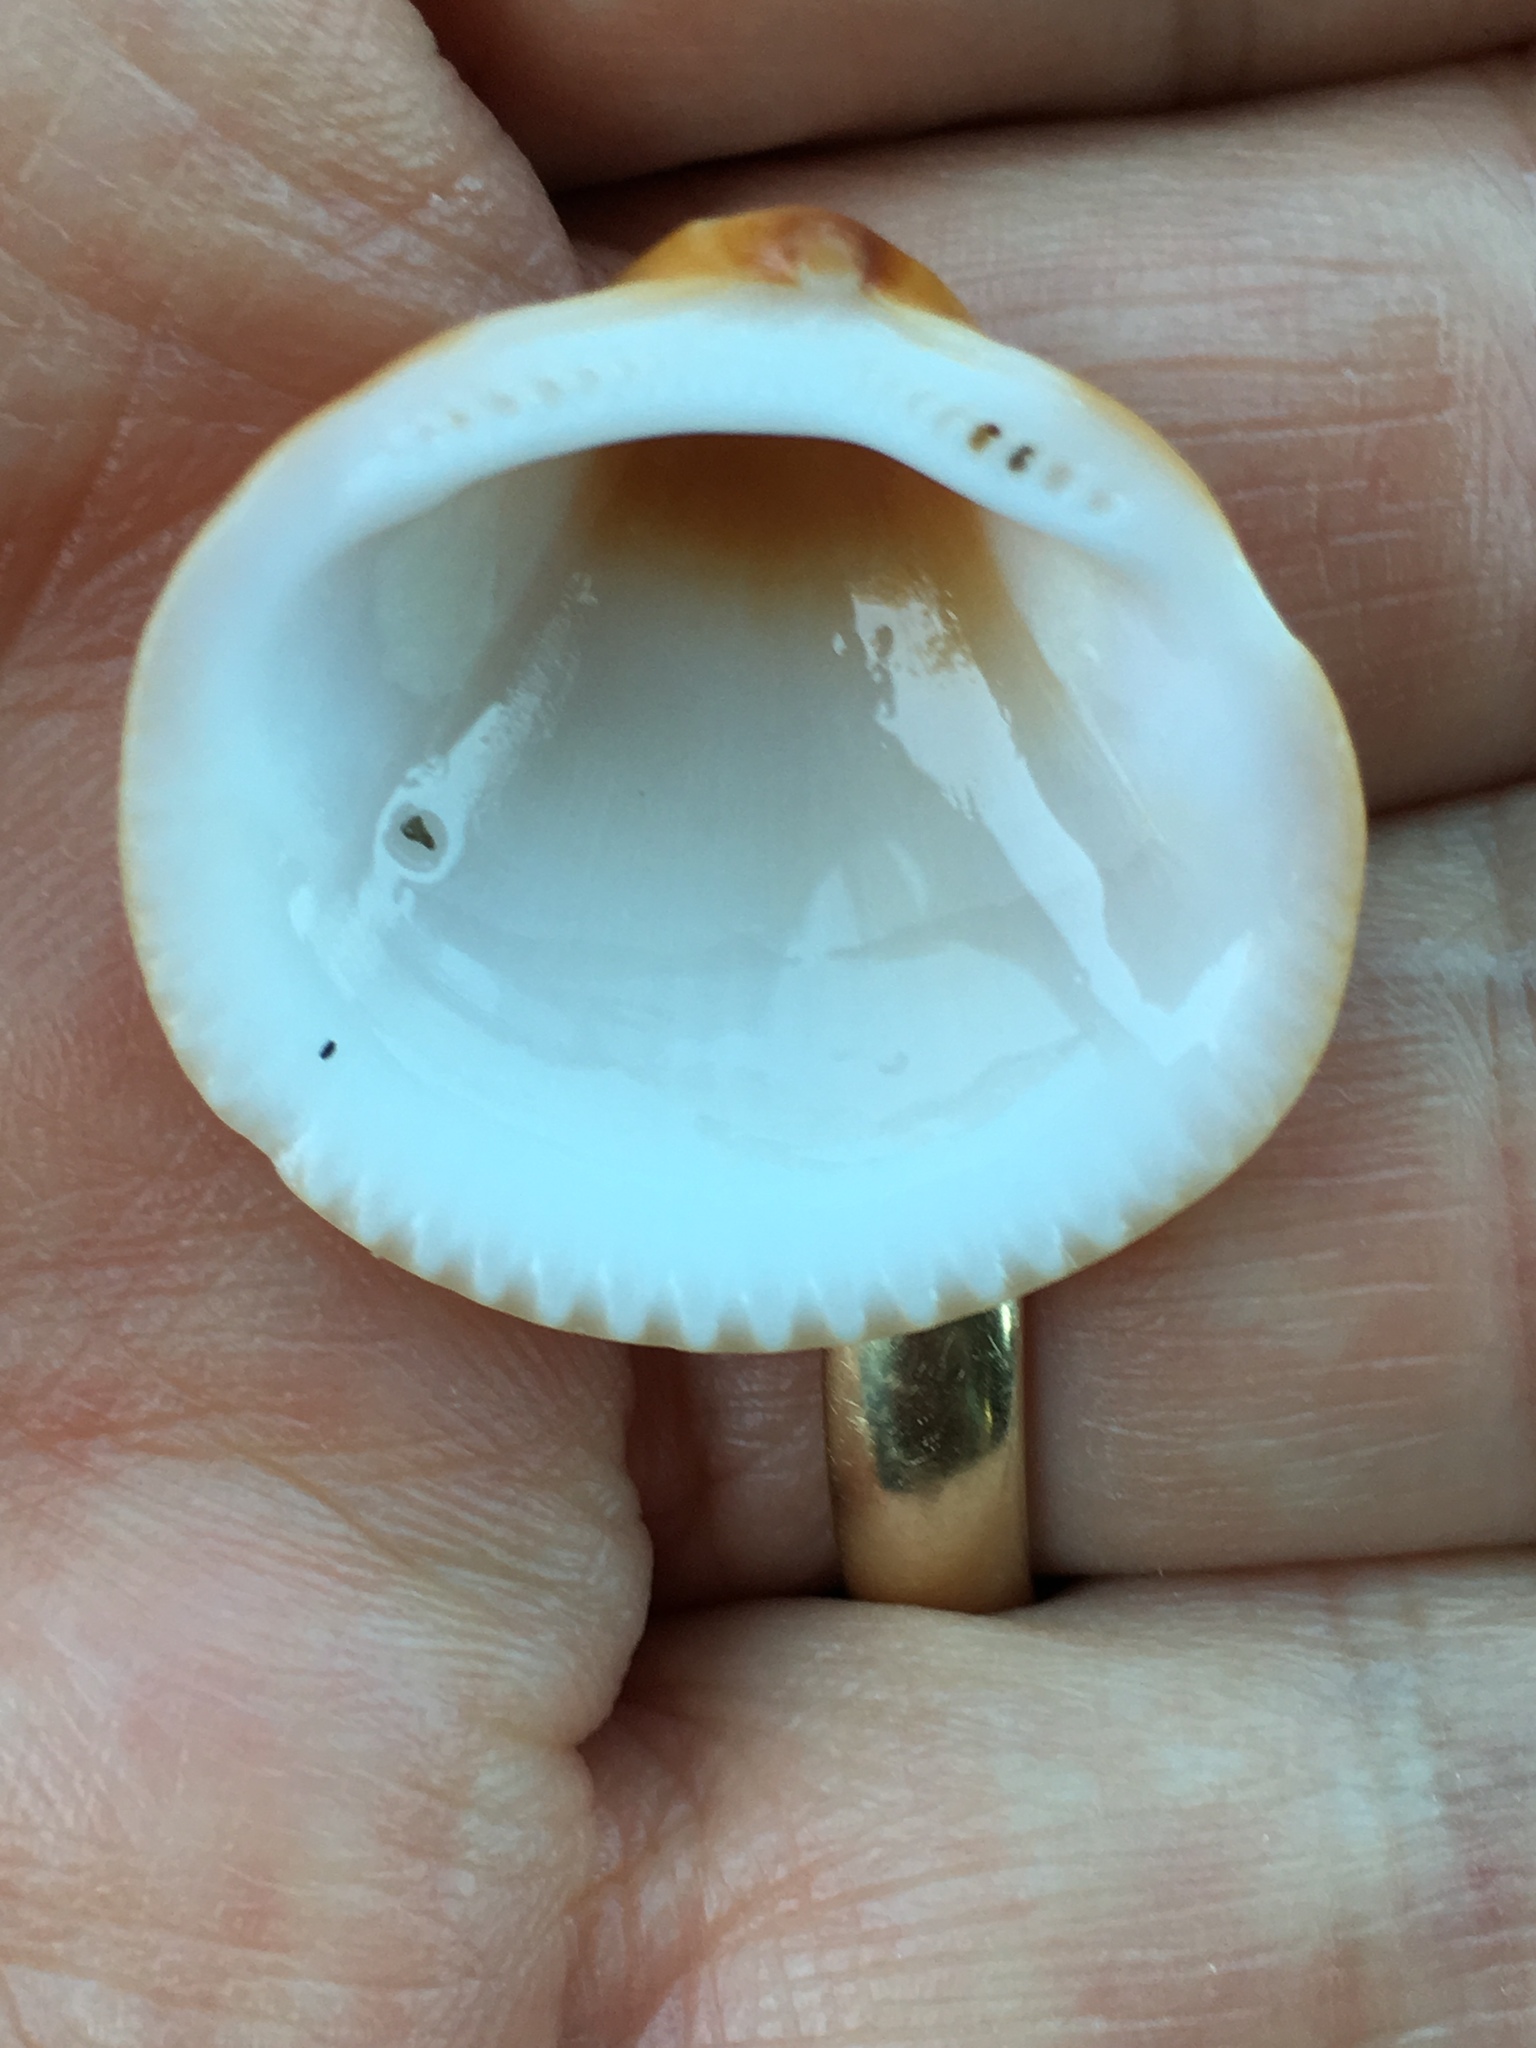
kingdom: Animalia
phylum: Mollusca
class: Bivalvia
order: Arcida
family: Glycymerididae
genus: Glycymeris
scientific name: Glycymeris spectralis
